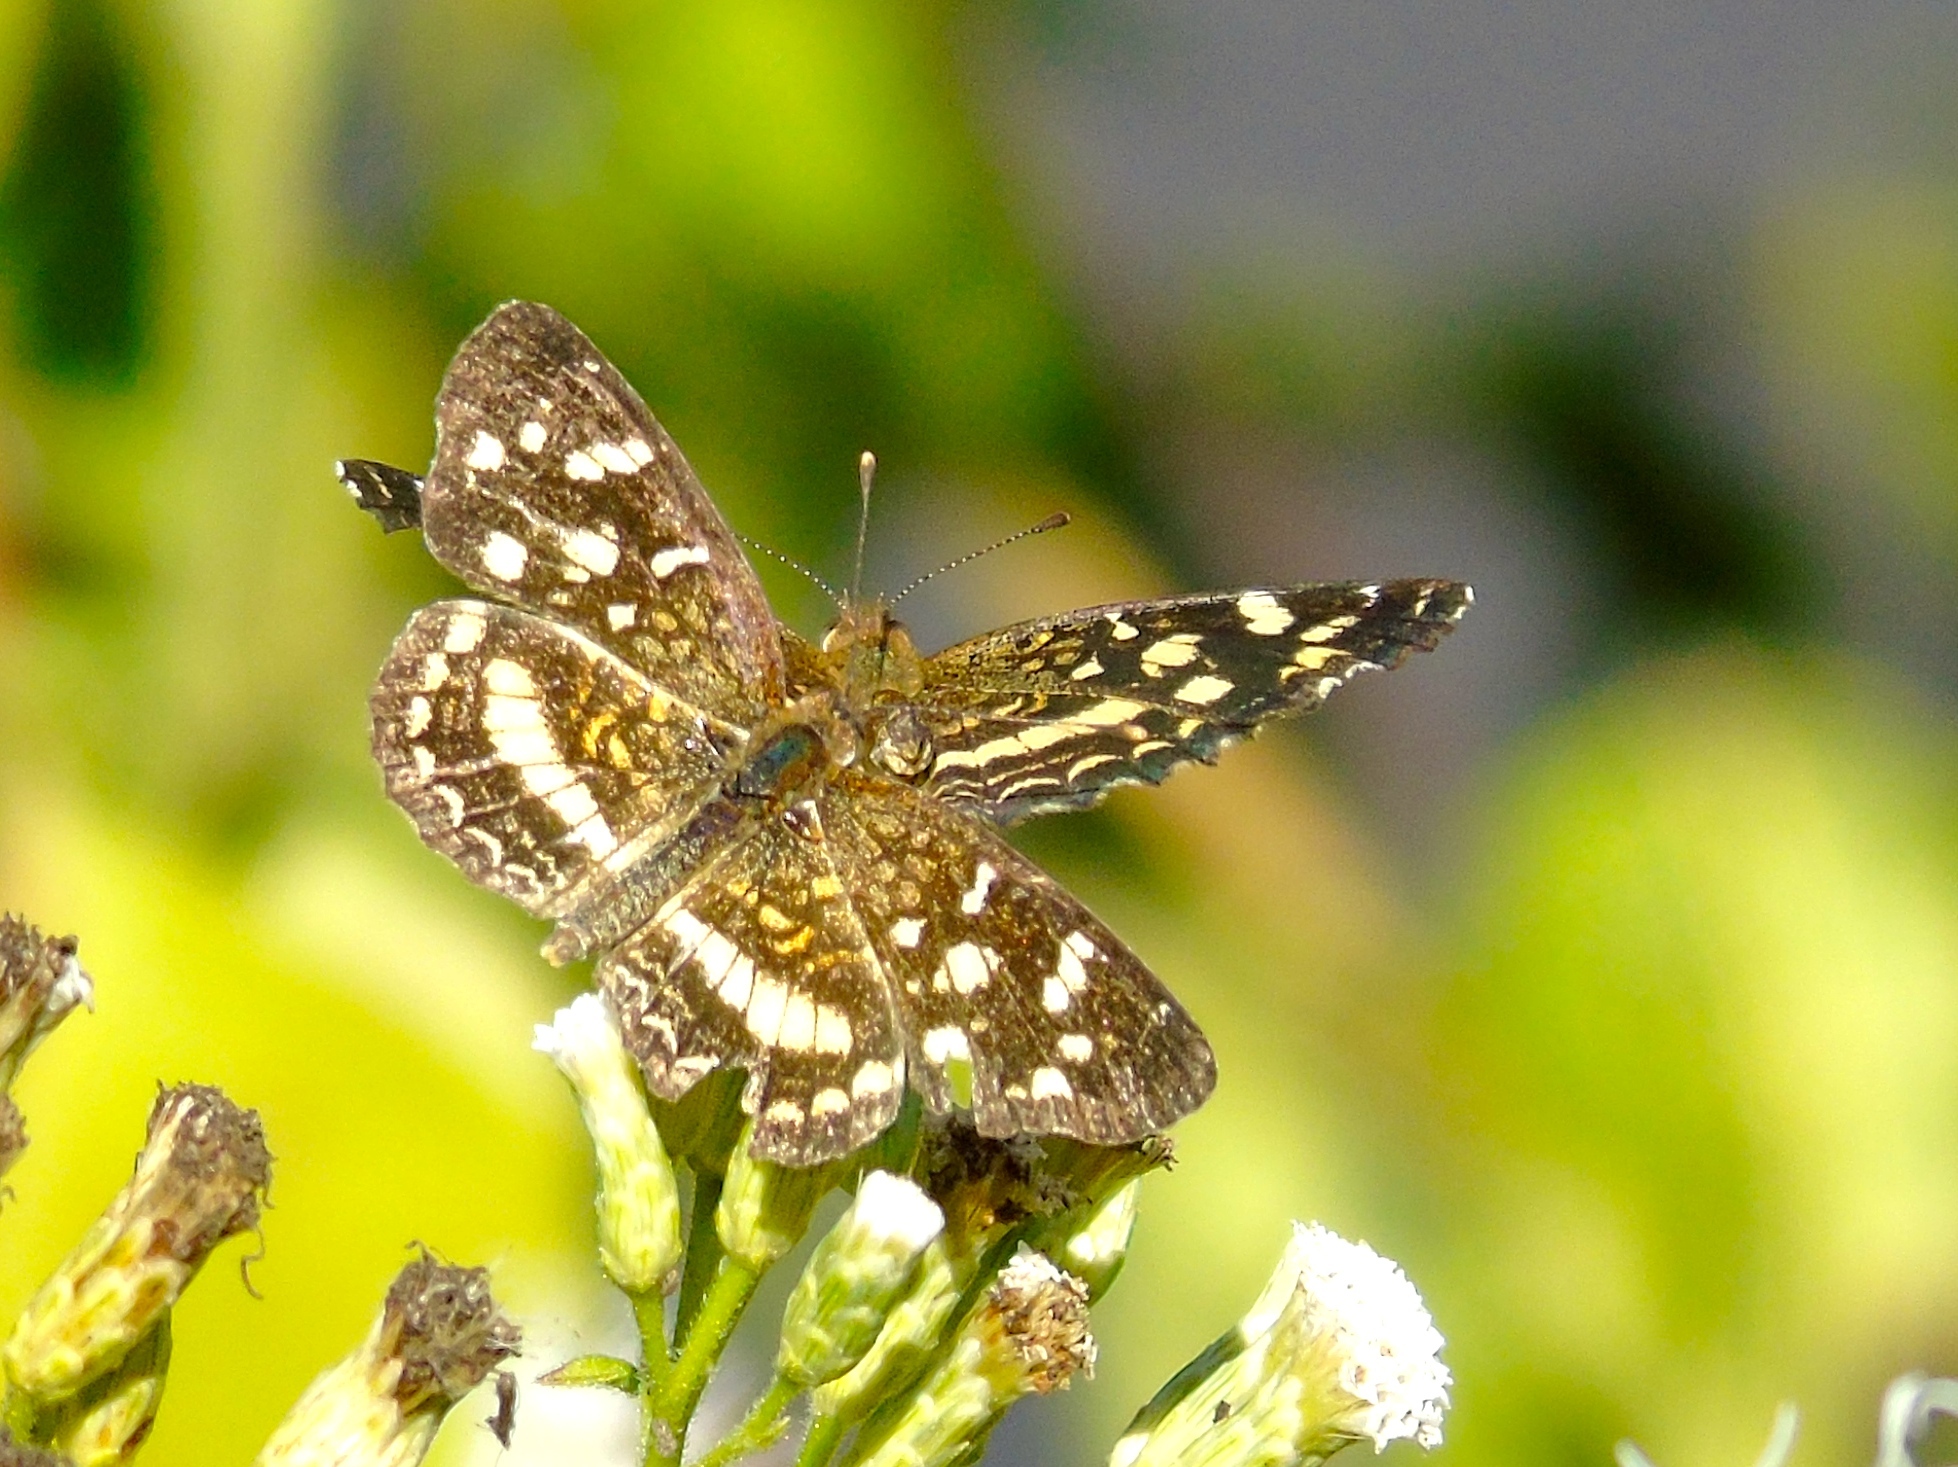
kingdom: Animalia
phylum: Arthropoda
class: Insecta
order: Lepidoptera
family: Nymphalidae
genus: Anthanassa
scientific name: Anthanassa tulcis
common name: Pale-banded crescent
